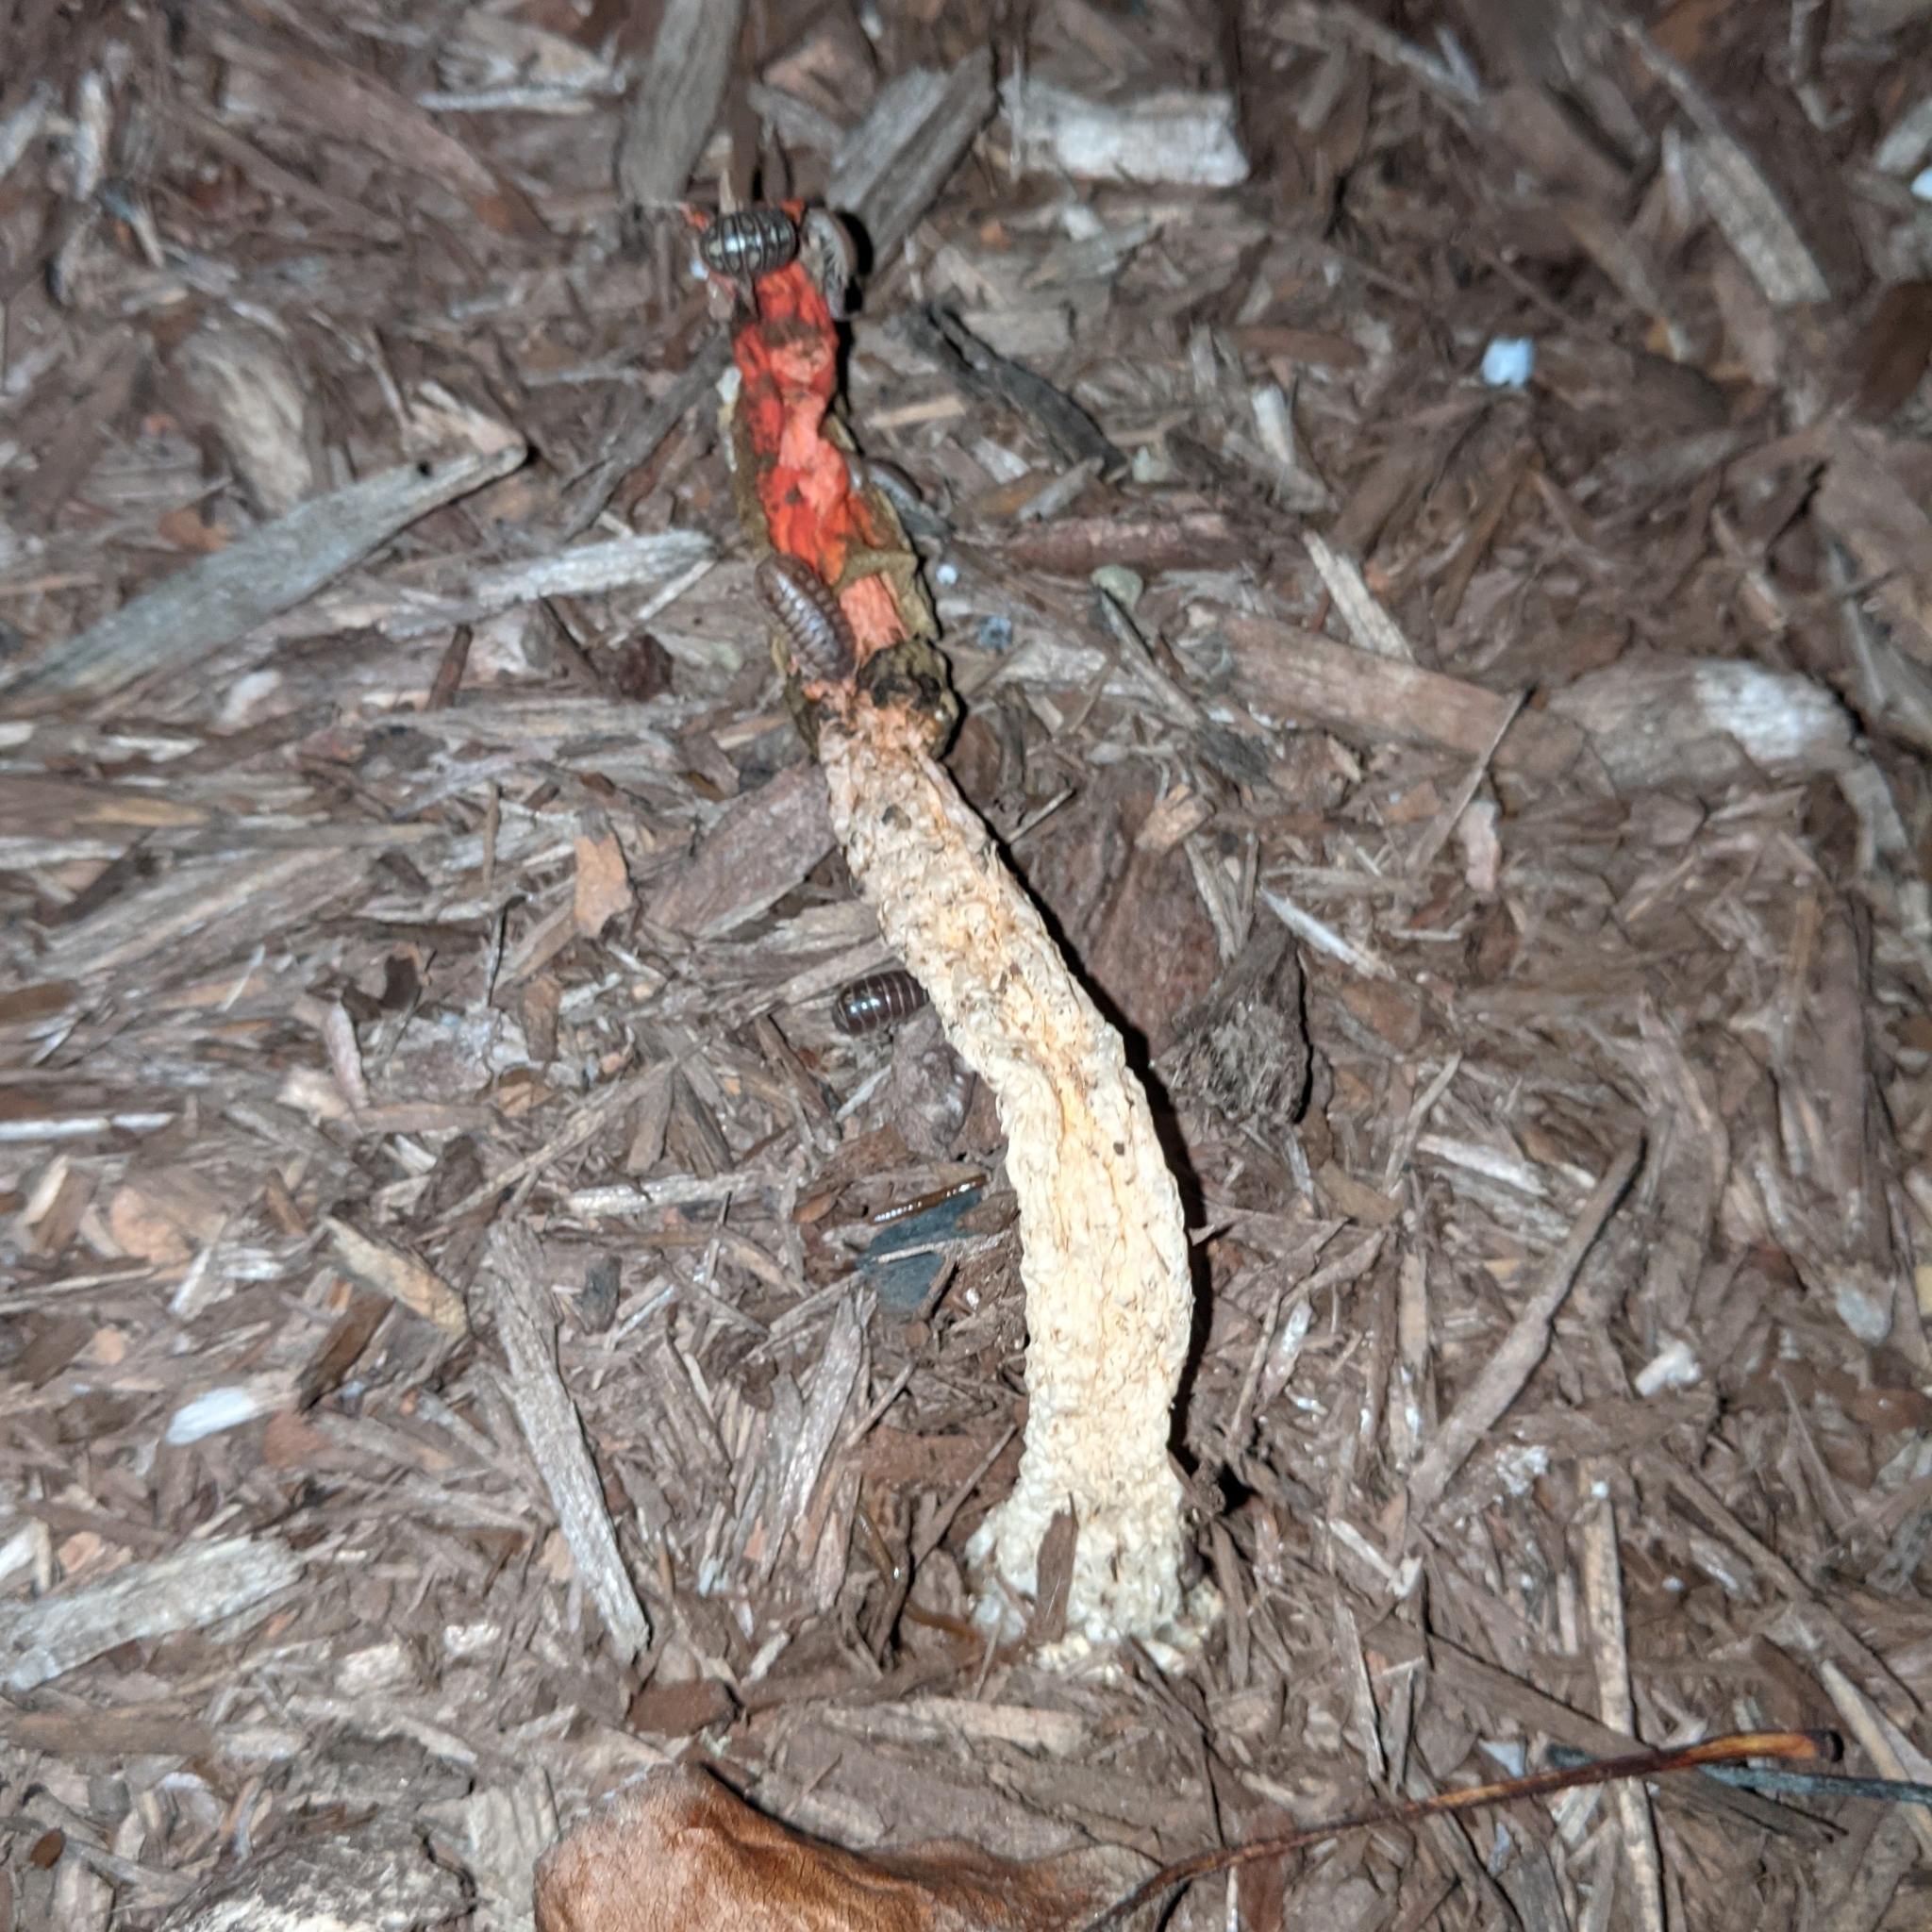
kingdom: Fungi
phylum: Basidiomycota
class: Agaricomycetes
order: Phallales
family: Phallaceae
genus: Phallus
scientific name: Phallus rugulosus
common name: Wrinkly stinkhorn
